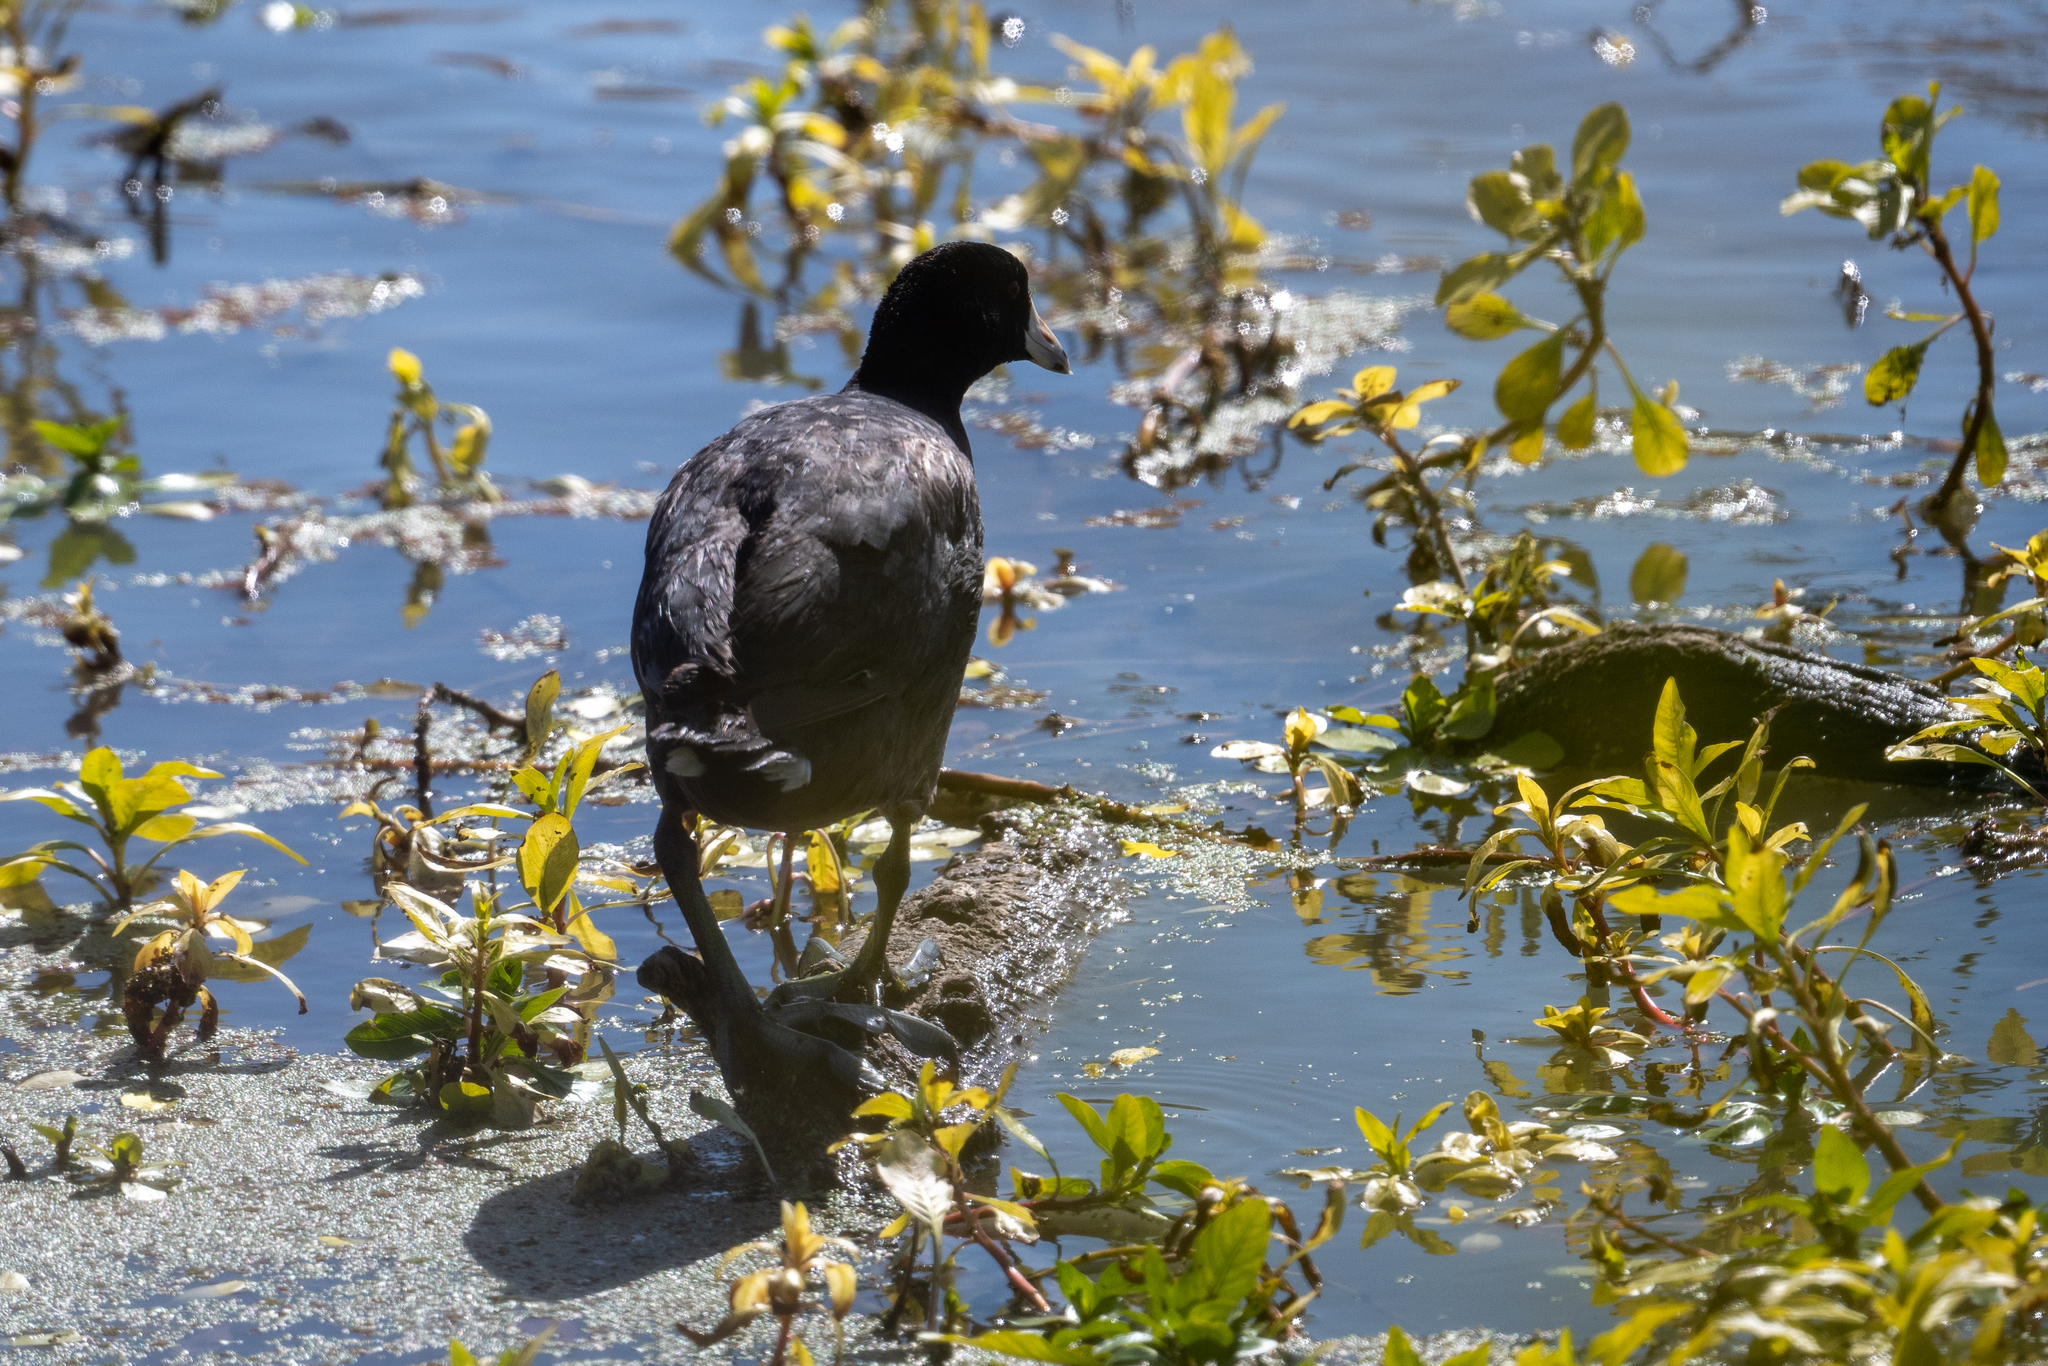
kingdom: Animalia
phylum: Chordata
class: Aves
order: Gruiformes
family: Rallidae
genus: Fulica
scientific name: Fulica americana
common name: American coot
